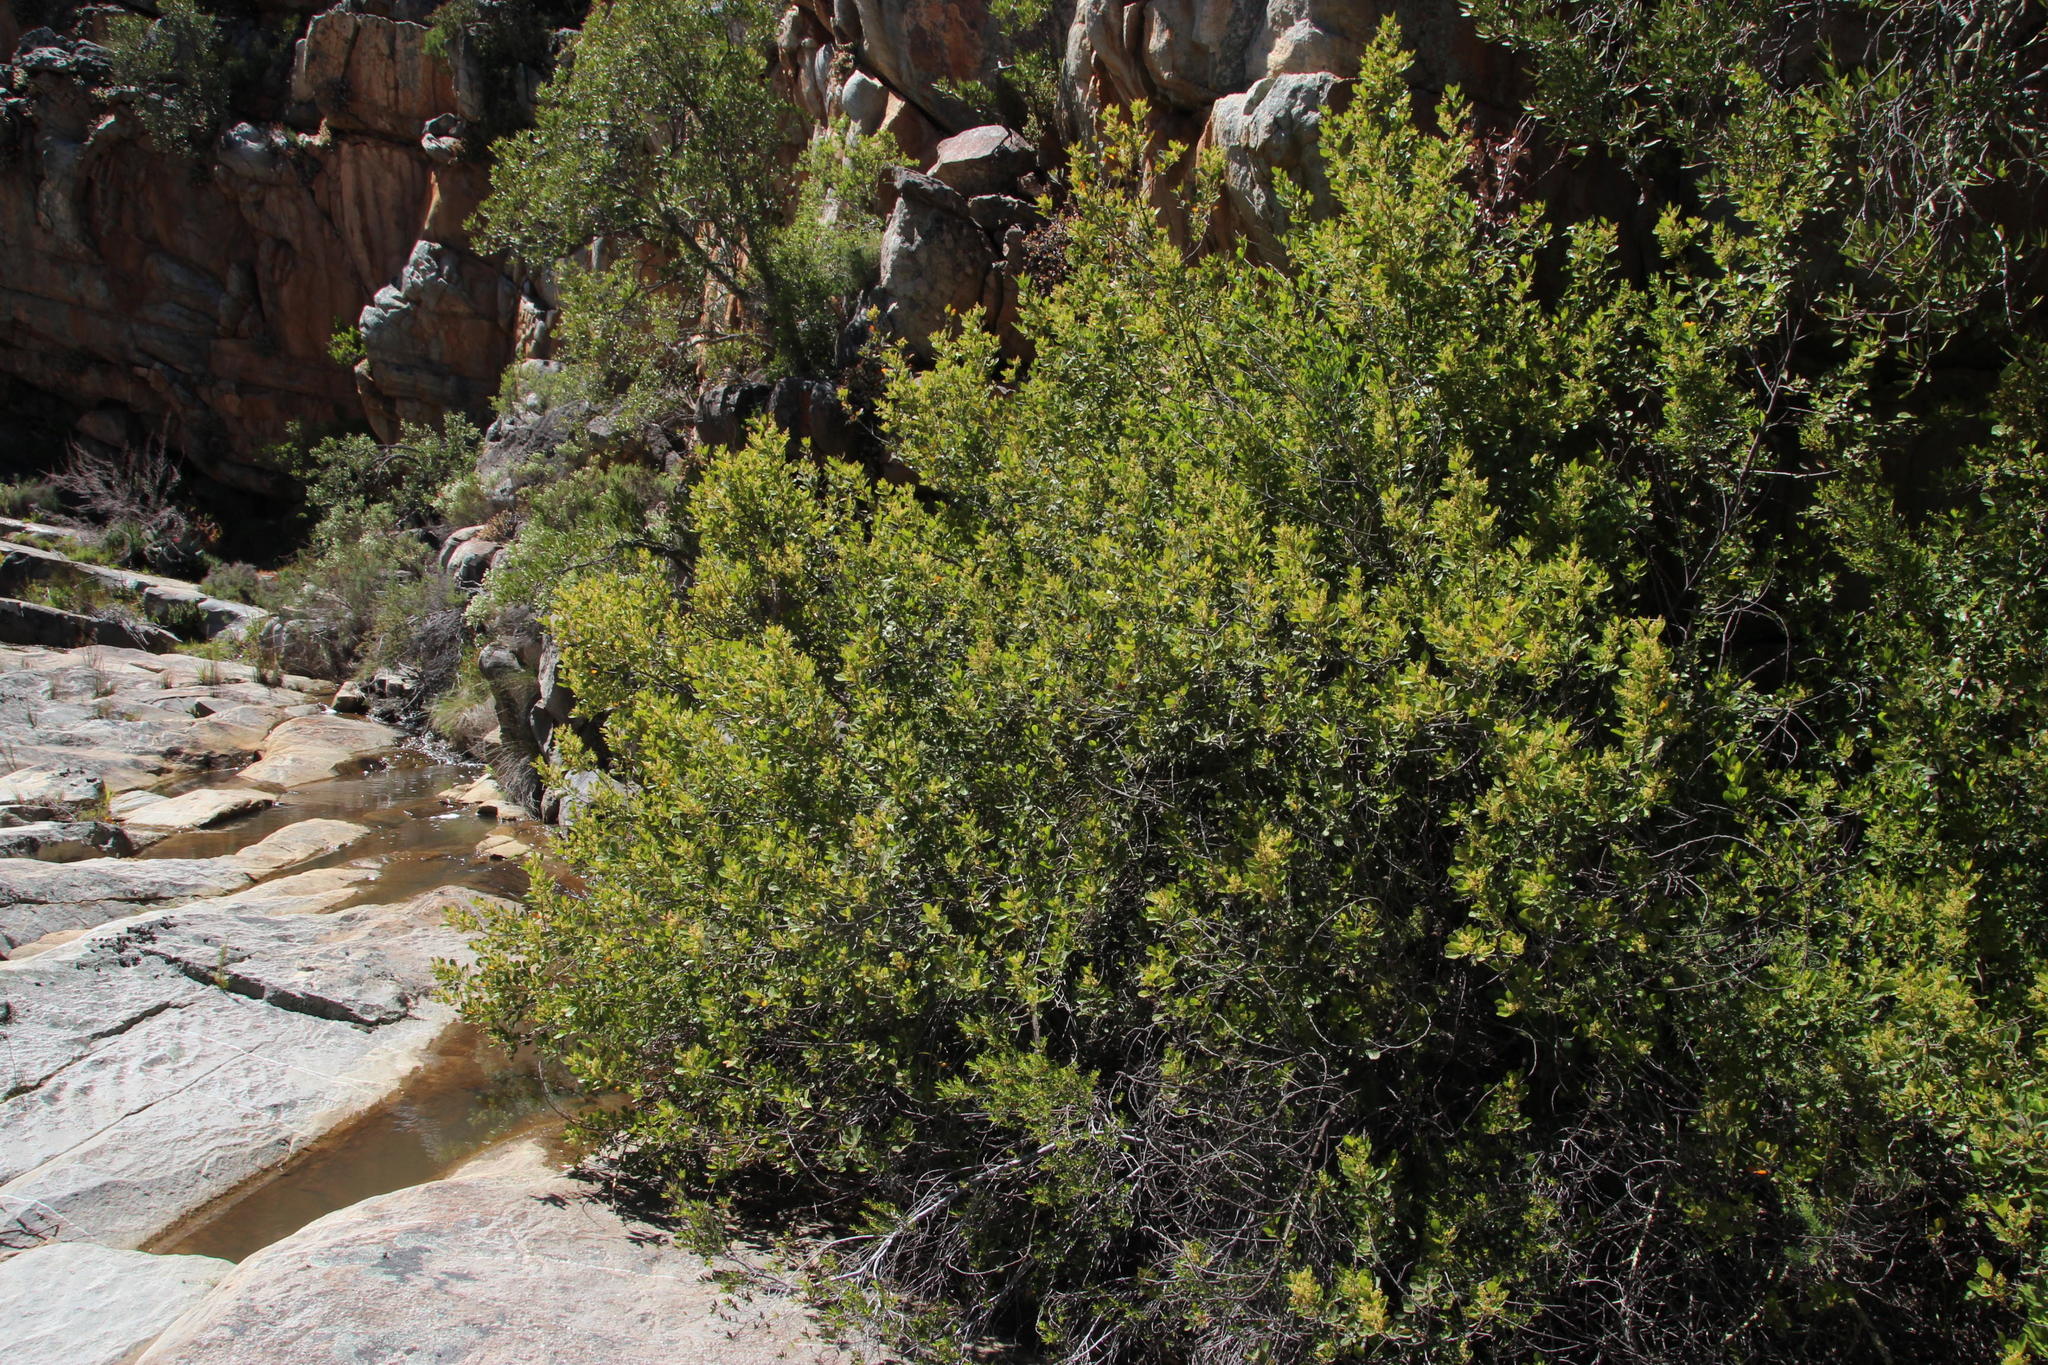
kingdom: Plantae
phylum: Tracheophyta
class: Magnoliopsida
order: Sapindales
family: Anacardiaceae
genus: Searsia
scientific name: Searsia lucida
